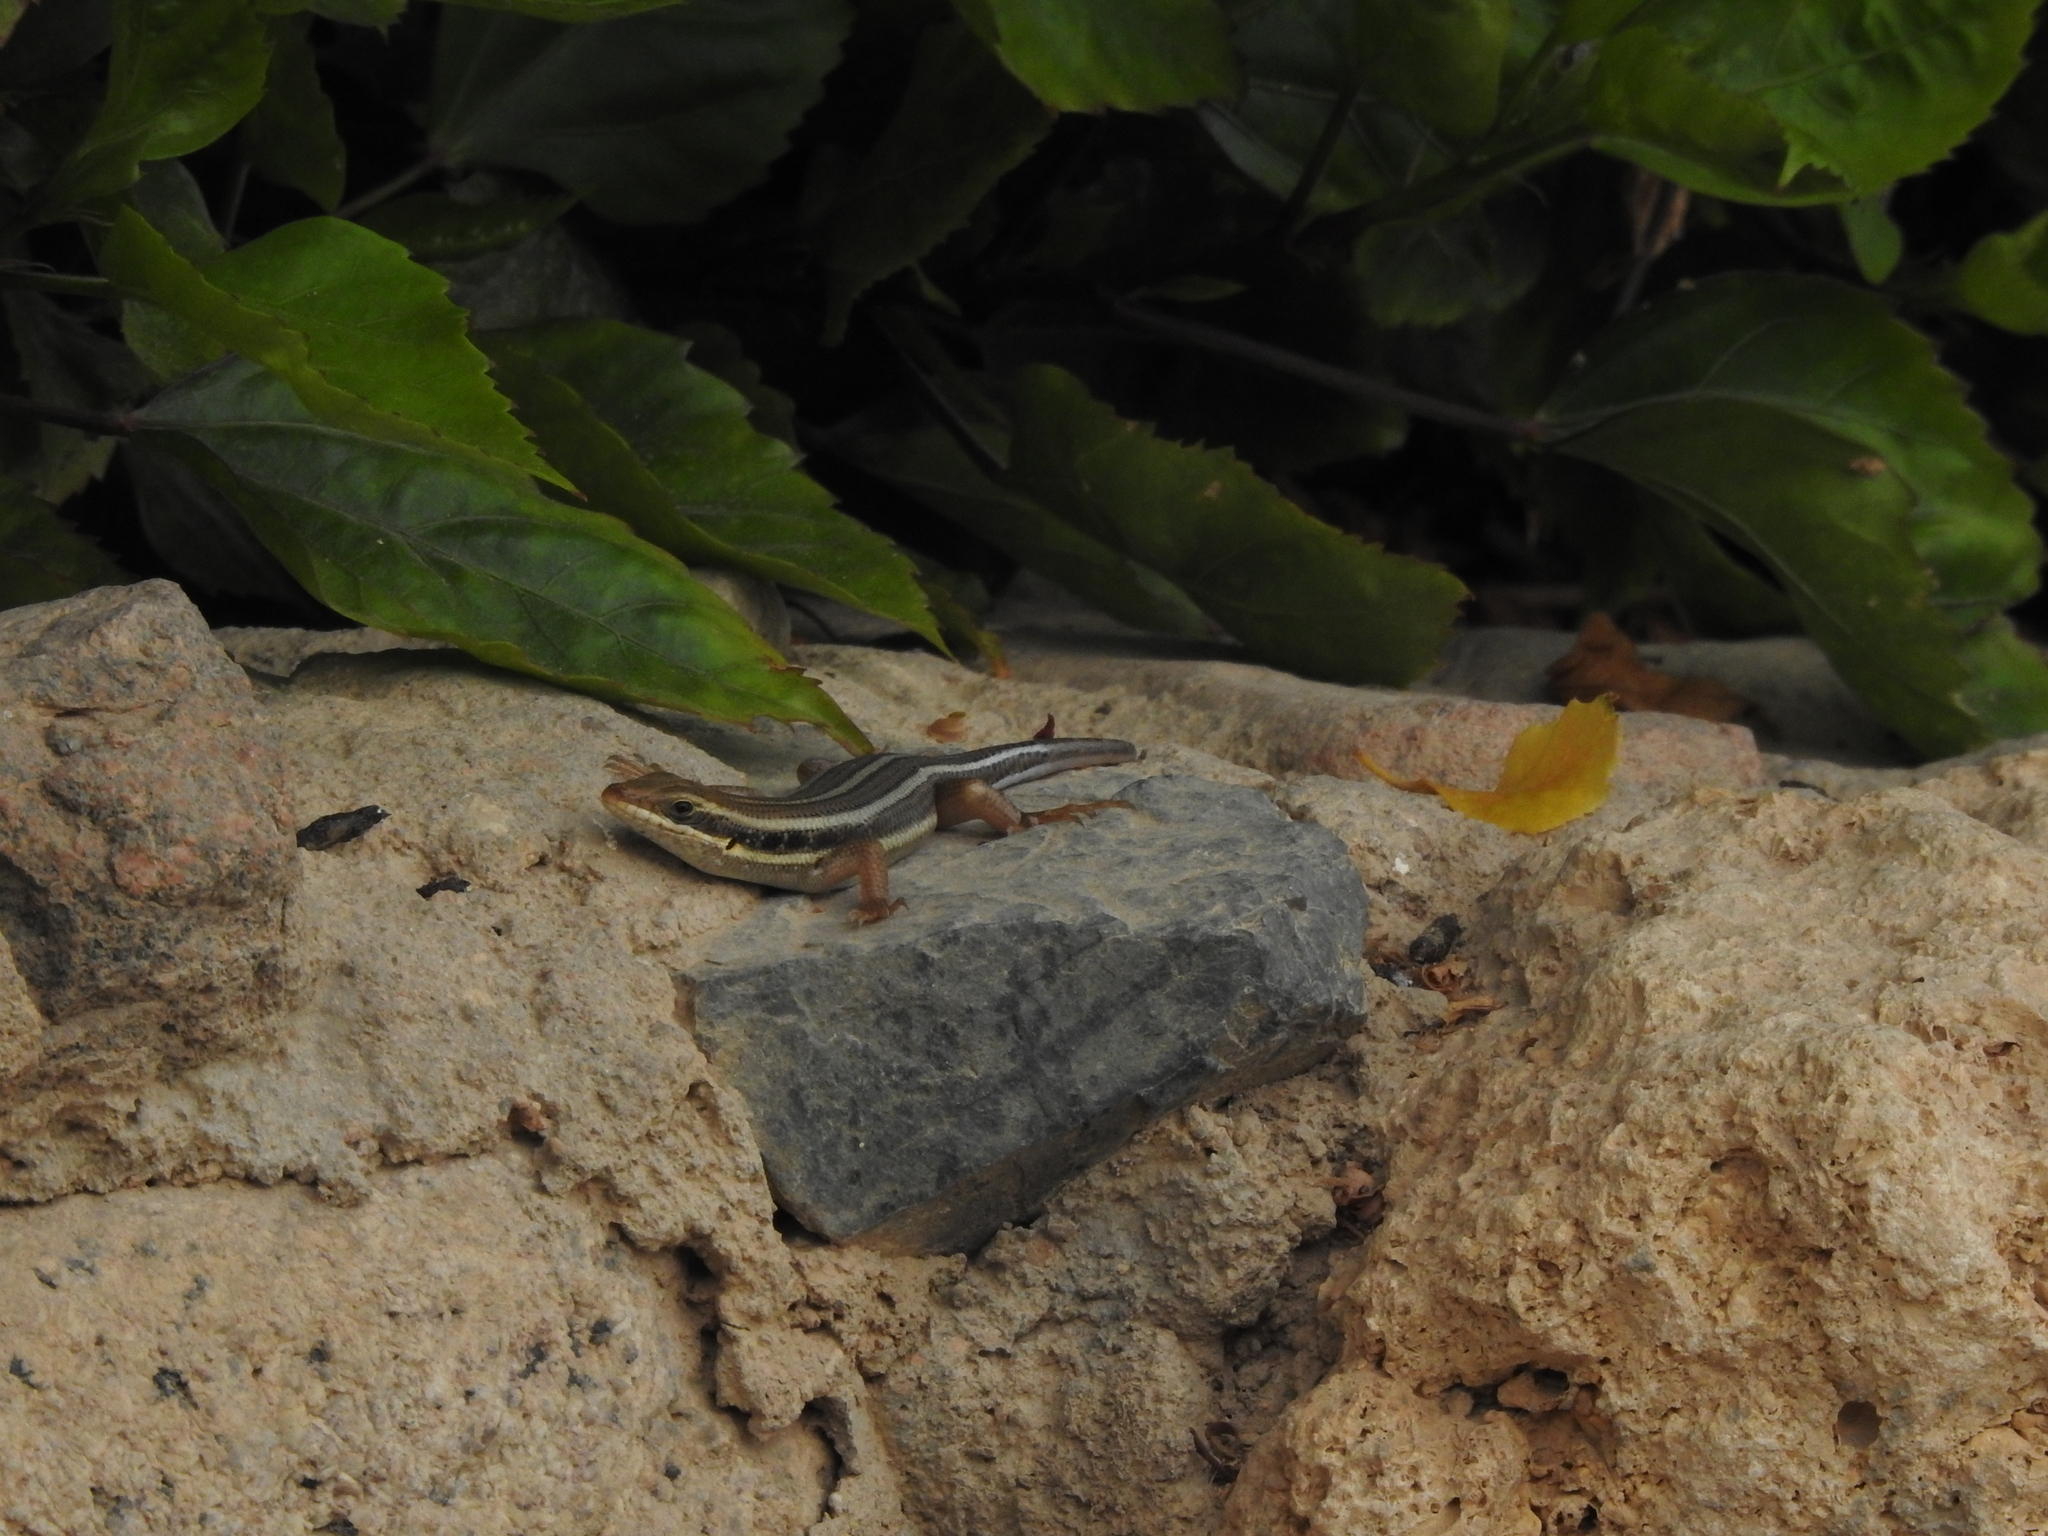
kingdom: Animalia
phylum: Chordata
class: Squamata
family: Scincidae
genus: Trachylepis
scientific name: Trachylepis quinquetaeniata
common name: African five-lined skink
